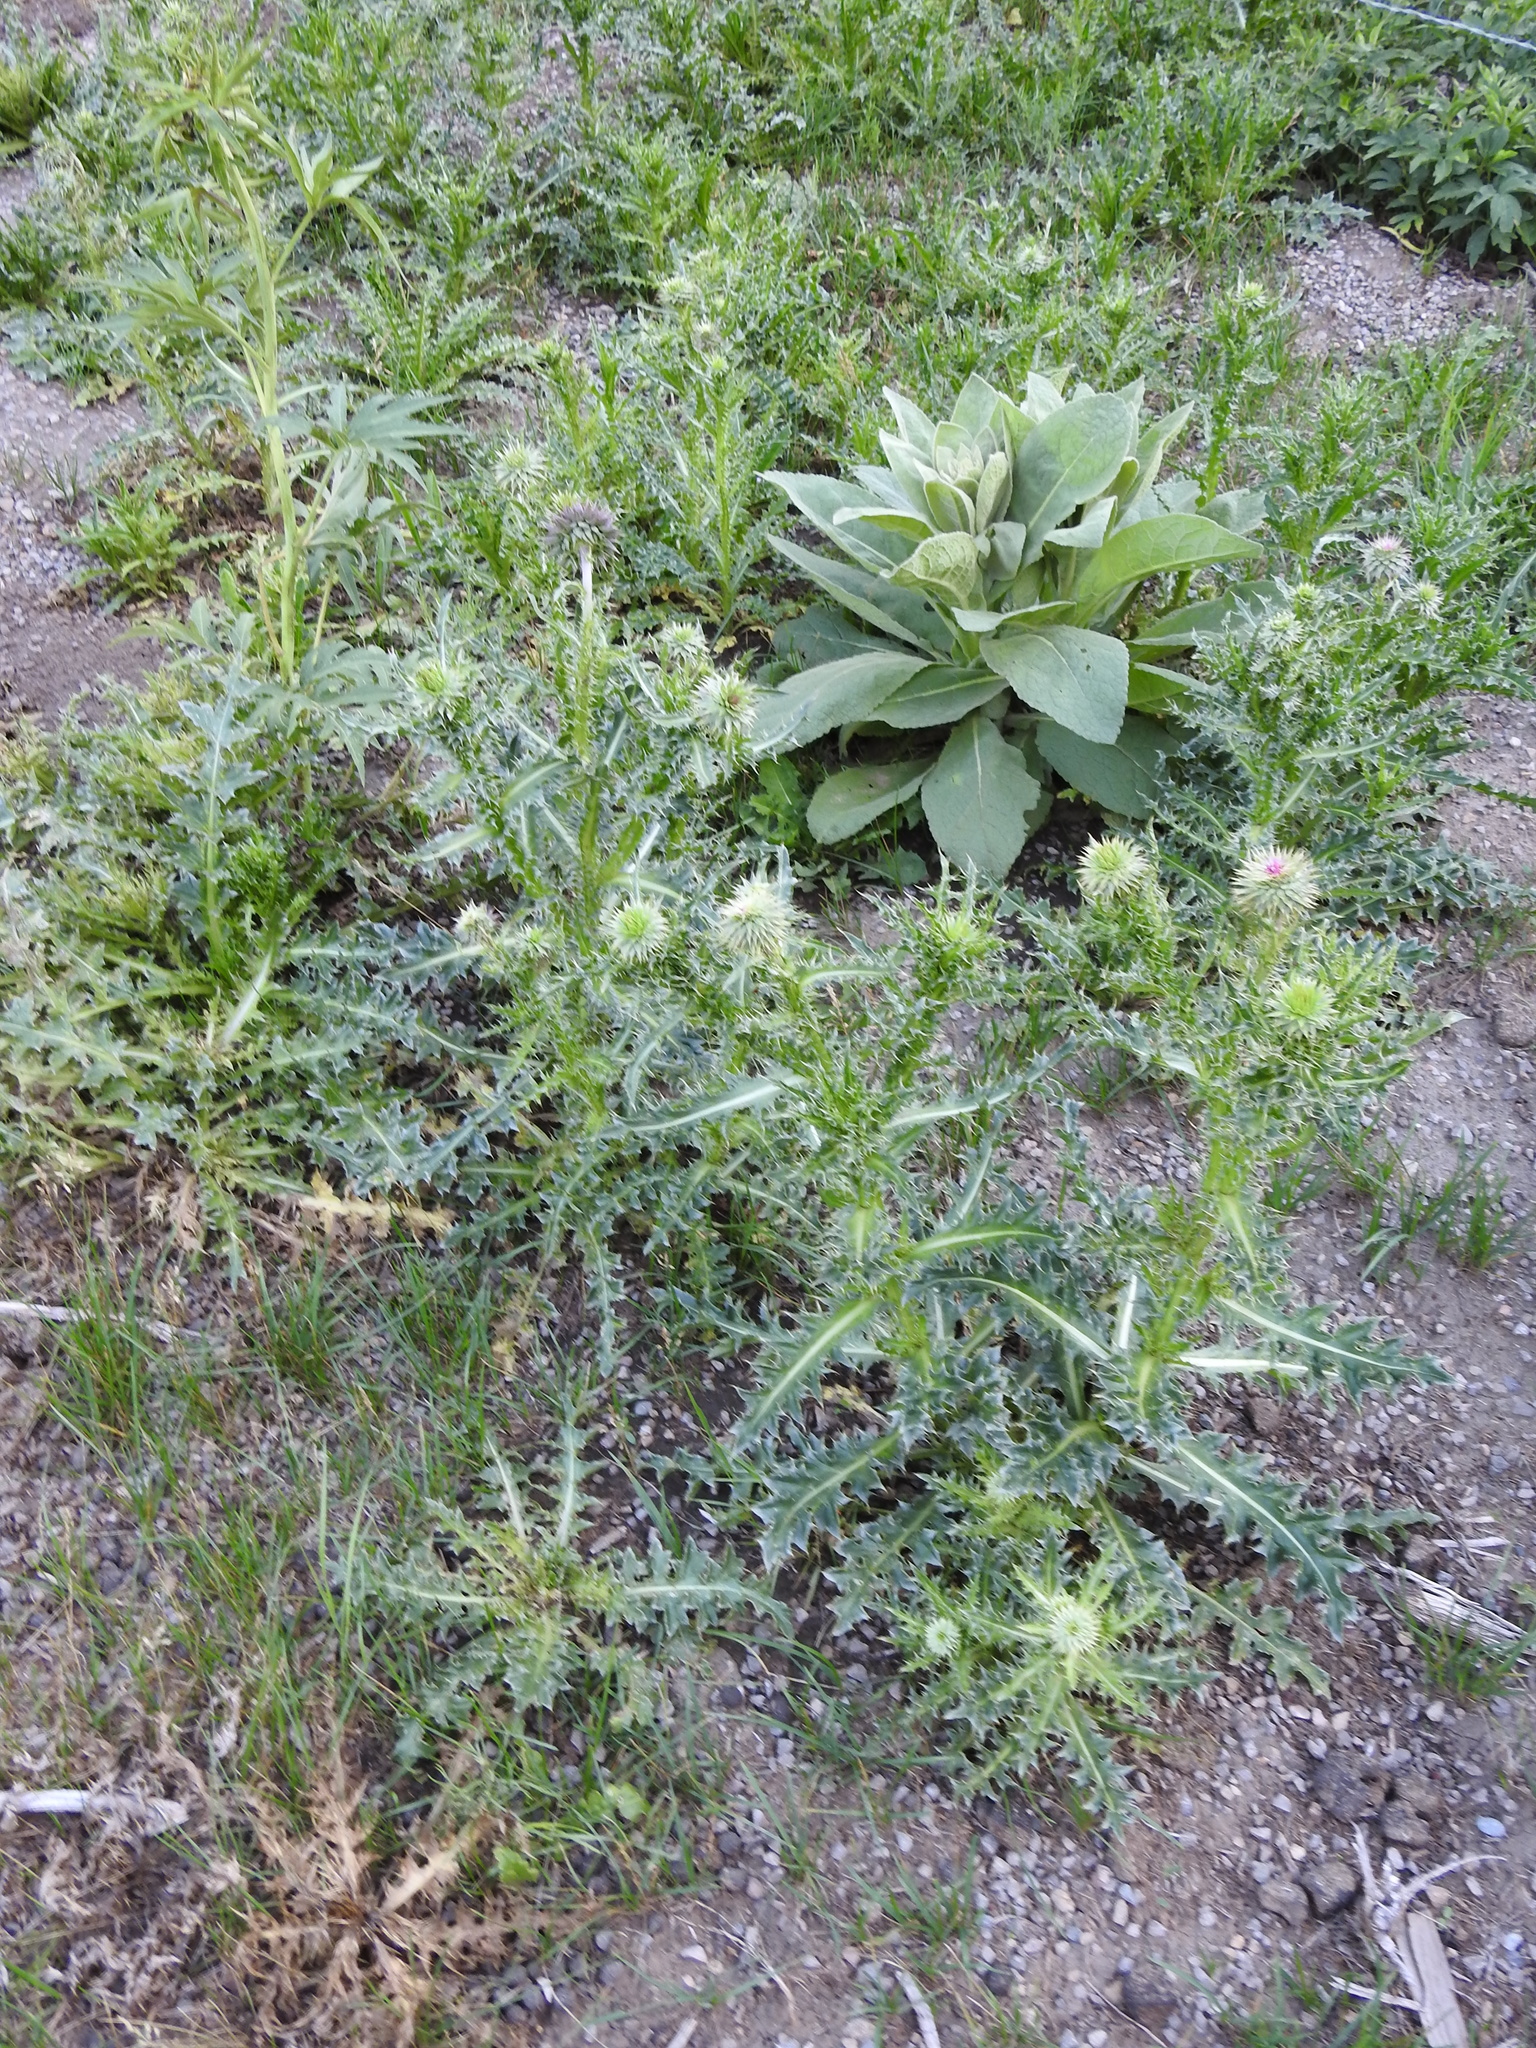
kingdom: Plantae
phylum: Tracheophyta
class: Magnoliopsida
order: Asterales
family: Asteraceae
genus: Carduus
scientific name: Carduus nutans
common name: Musk thistle
